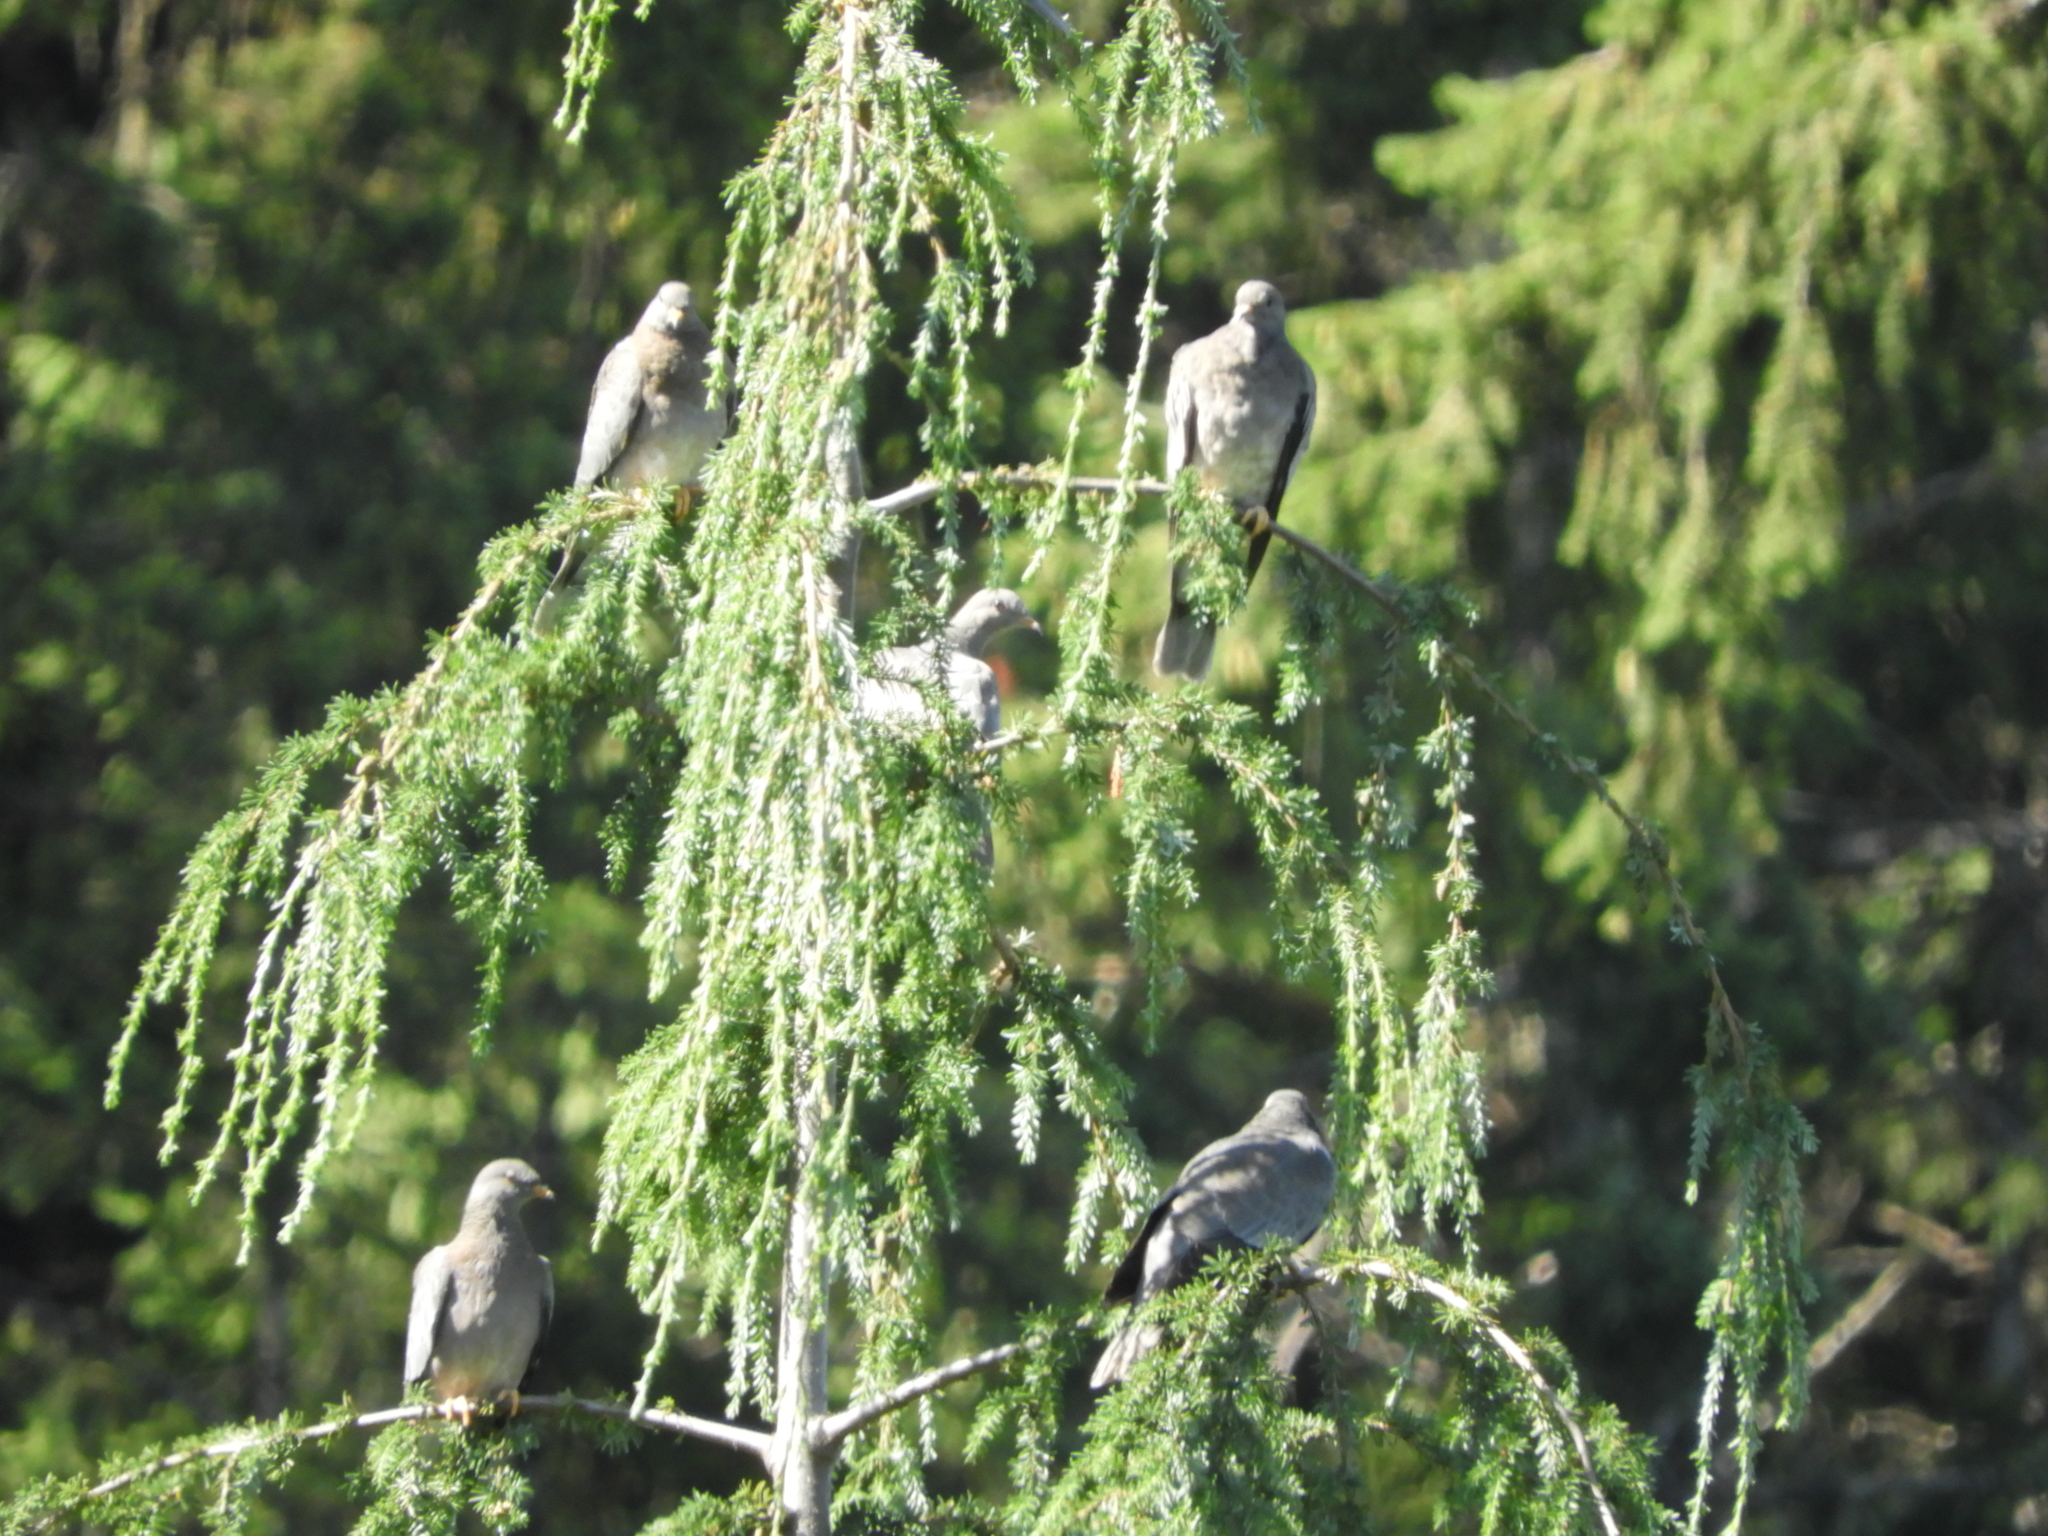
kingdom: Animalia
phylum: Chordata
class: Aves
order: Columbiformes
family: Columbidae
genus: Patagioenas
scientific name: Patagioenas fasciata
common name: Band-tailed pigeon
